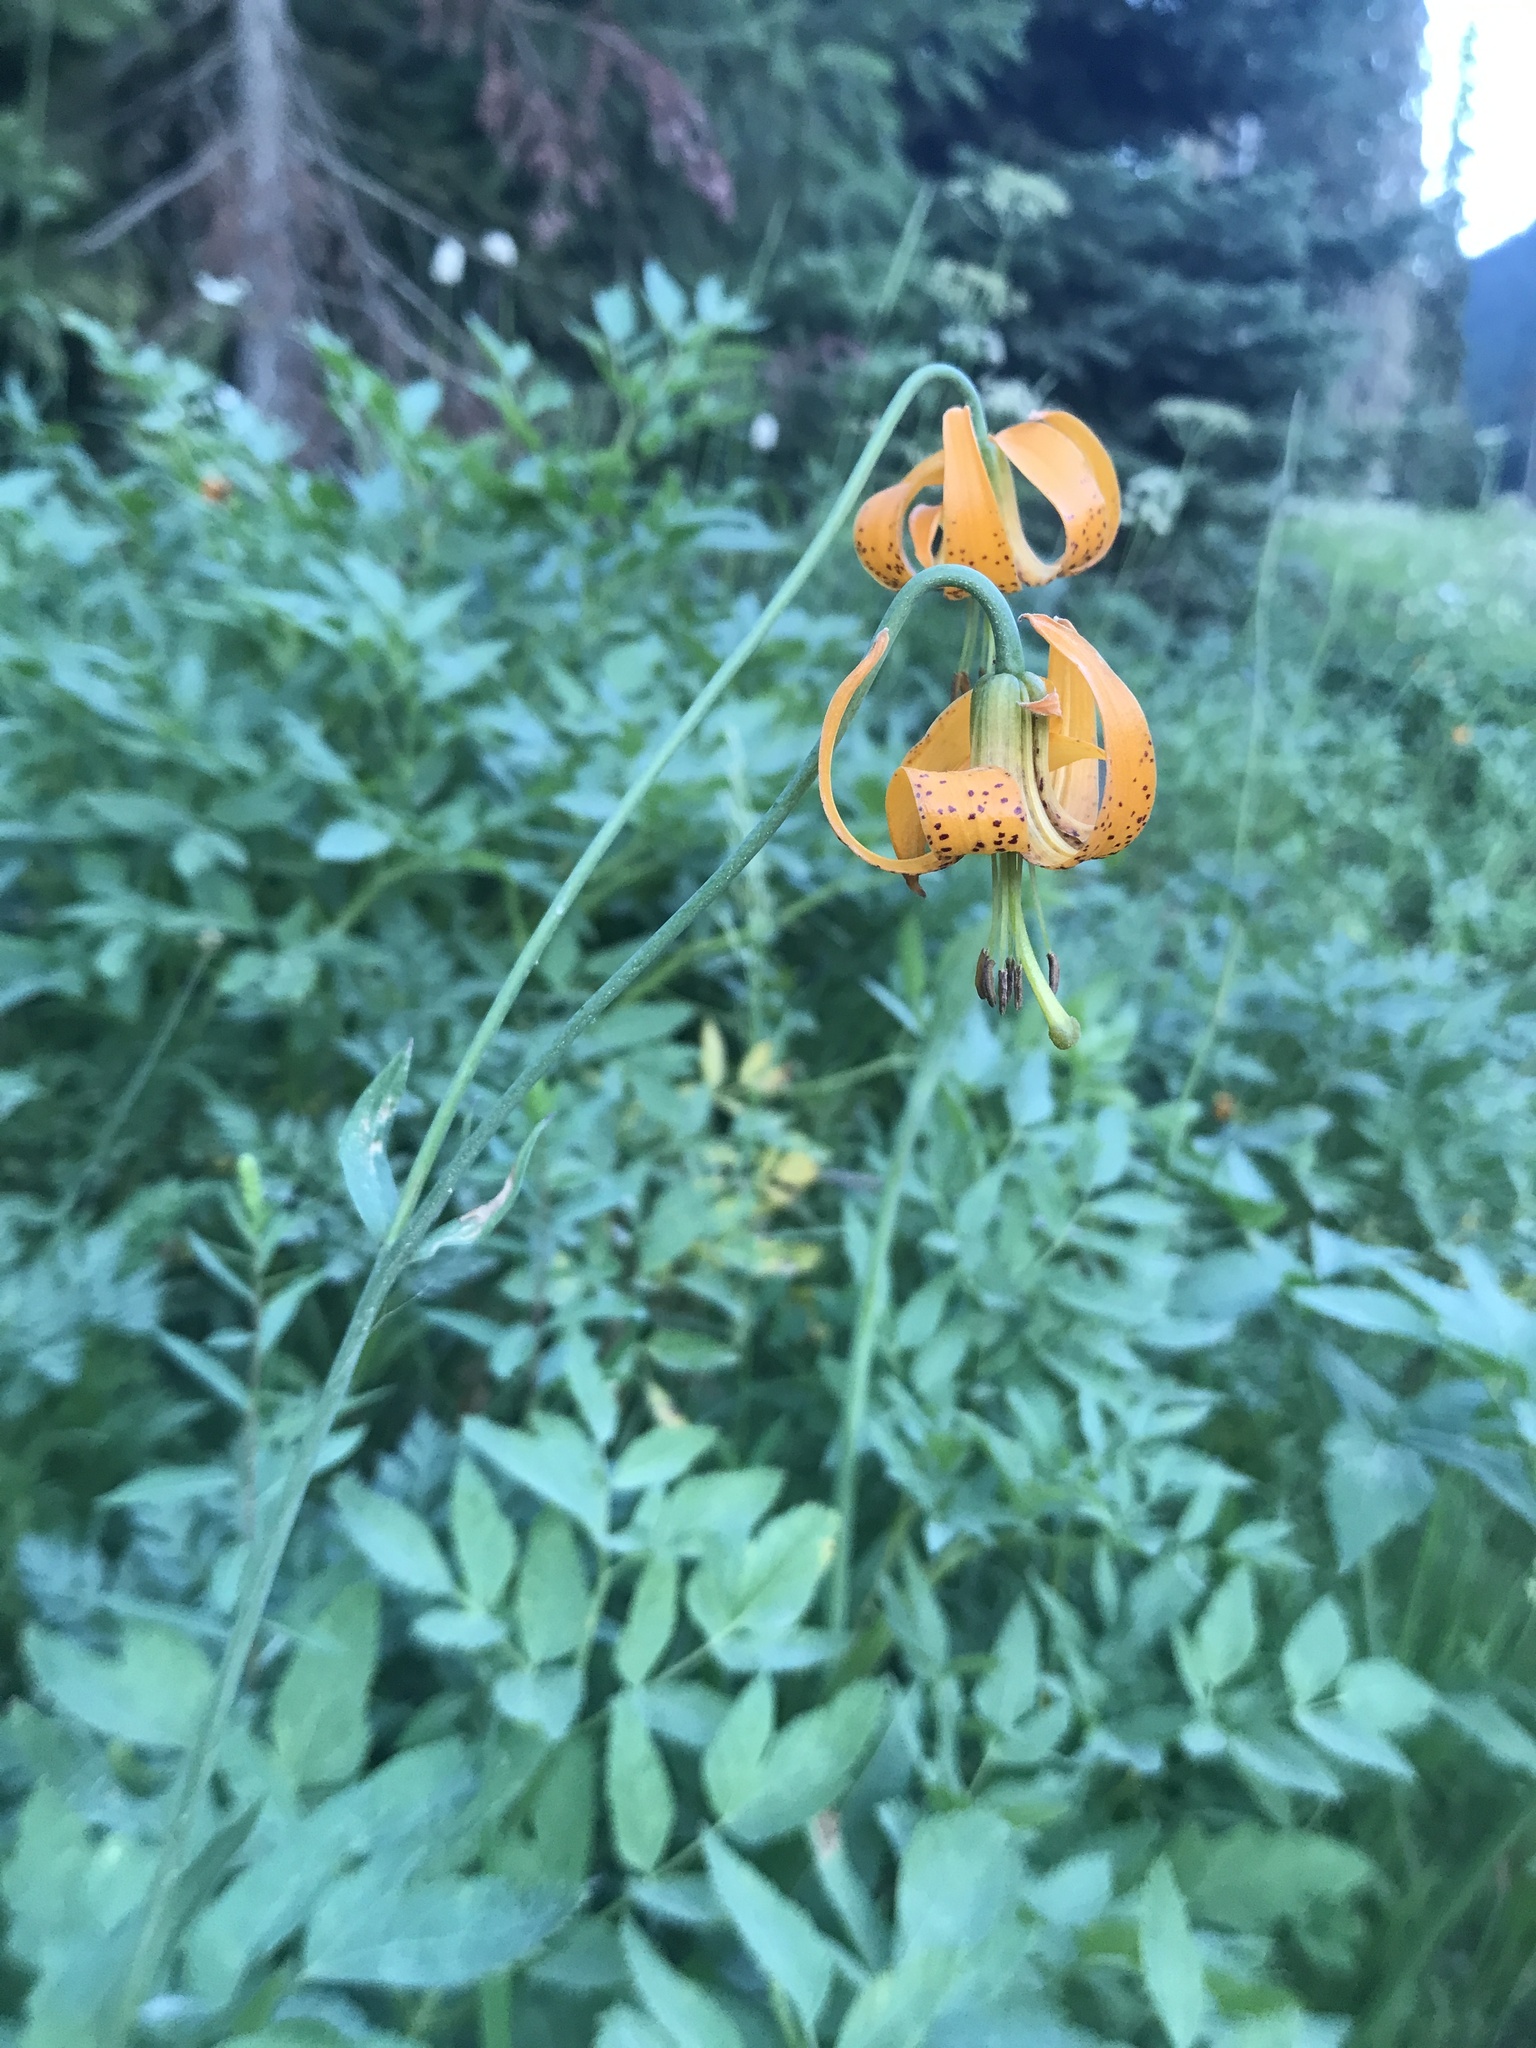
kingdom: Plantae
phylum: Tracheophyta
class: Liliopsida
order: Liliales
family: Liliaceae
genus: Lilium
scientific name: Lilium columbianum
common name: Columbia lily
